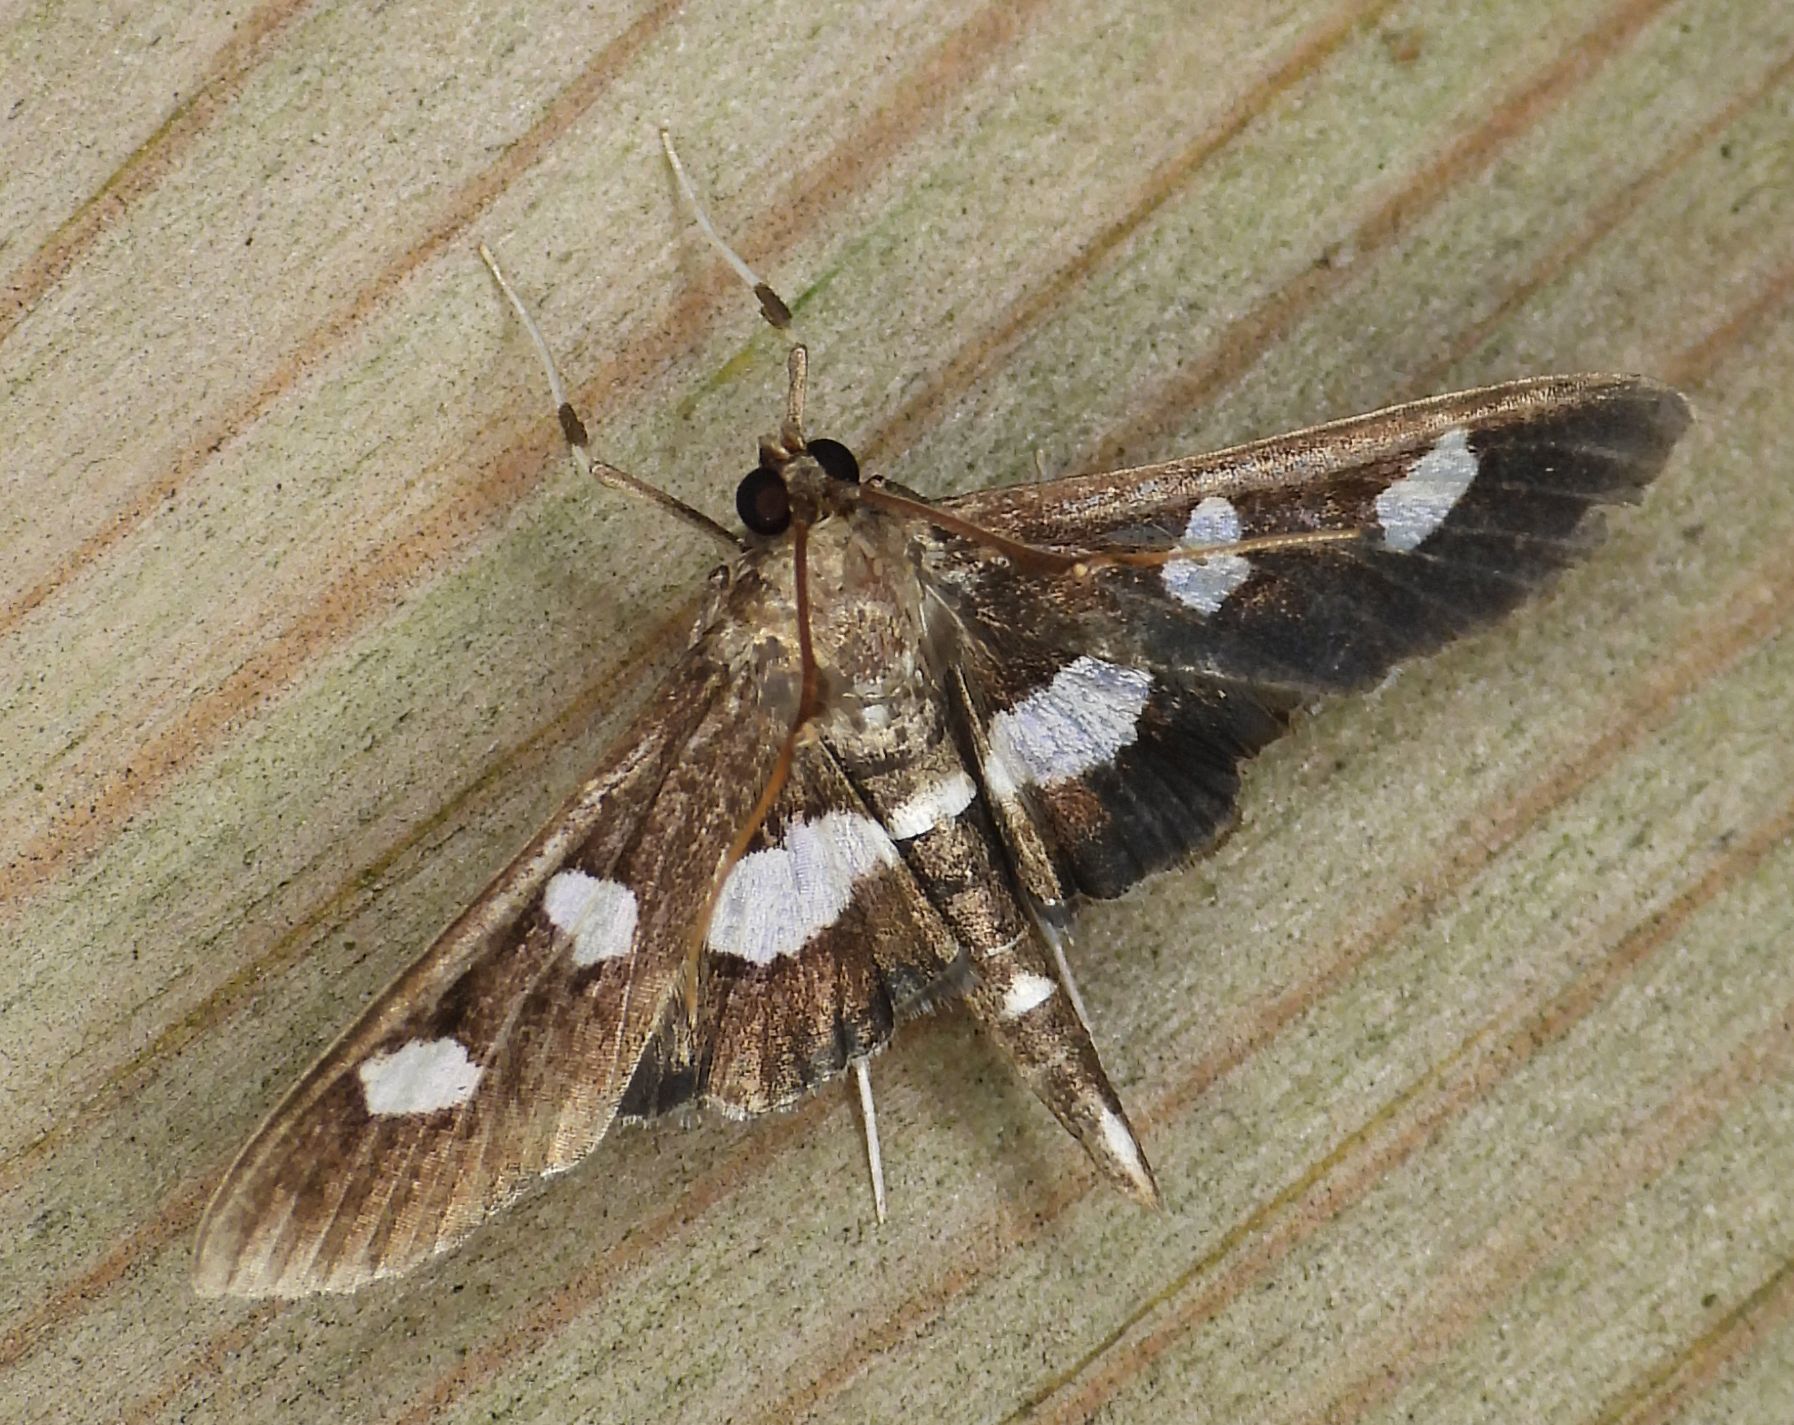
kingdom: Animalia
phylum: Arthropoda
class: Insecta
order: Lepidoptera
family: Crambidae
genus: Desmia
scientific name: Desmia
